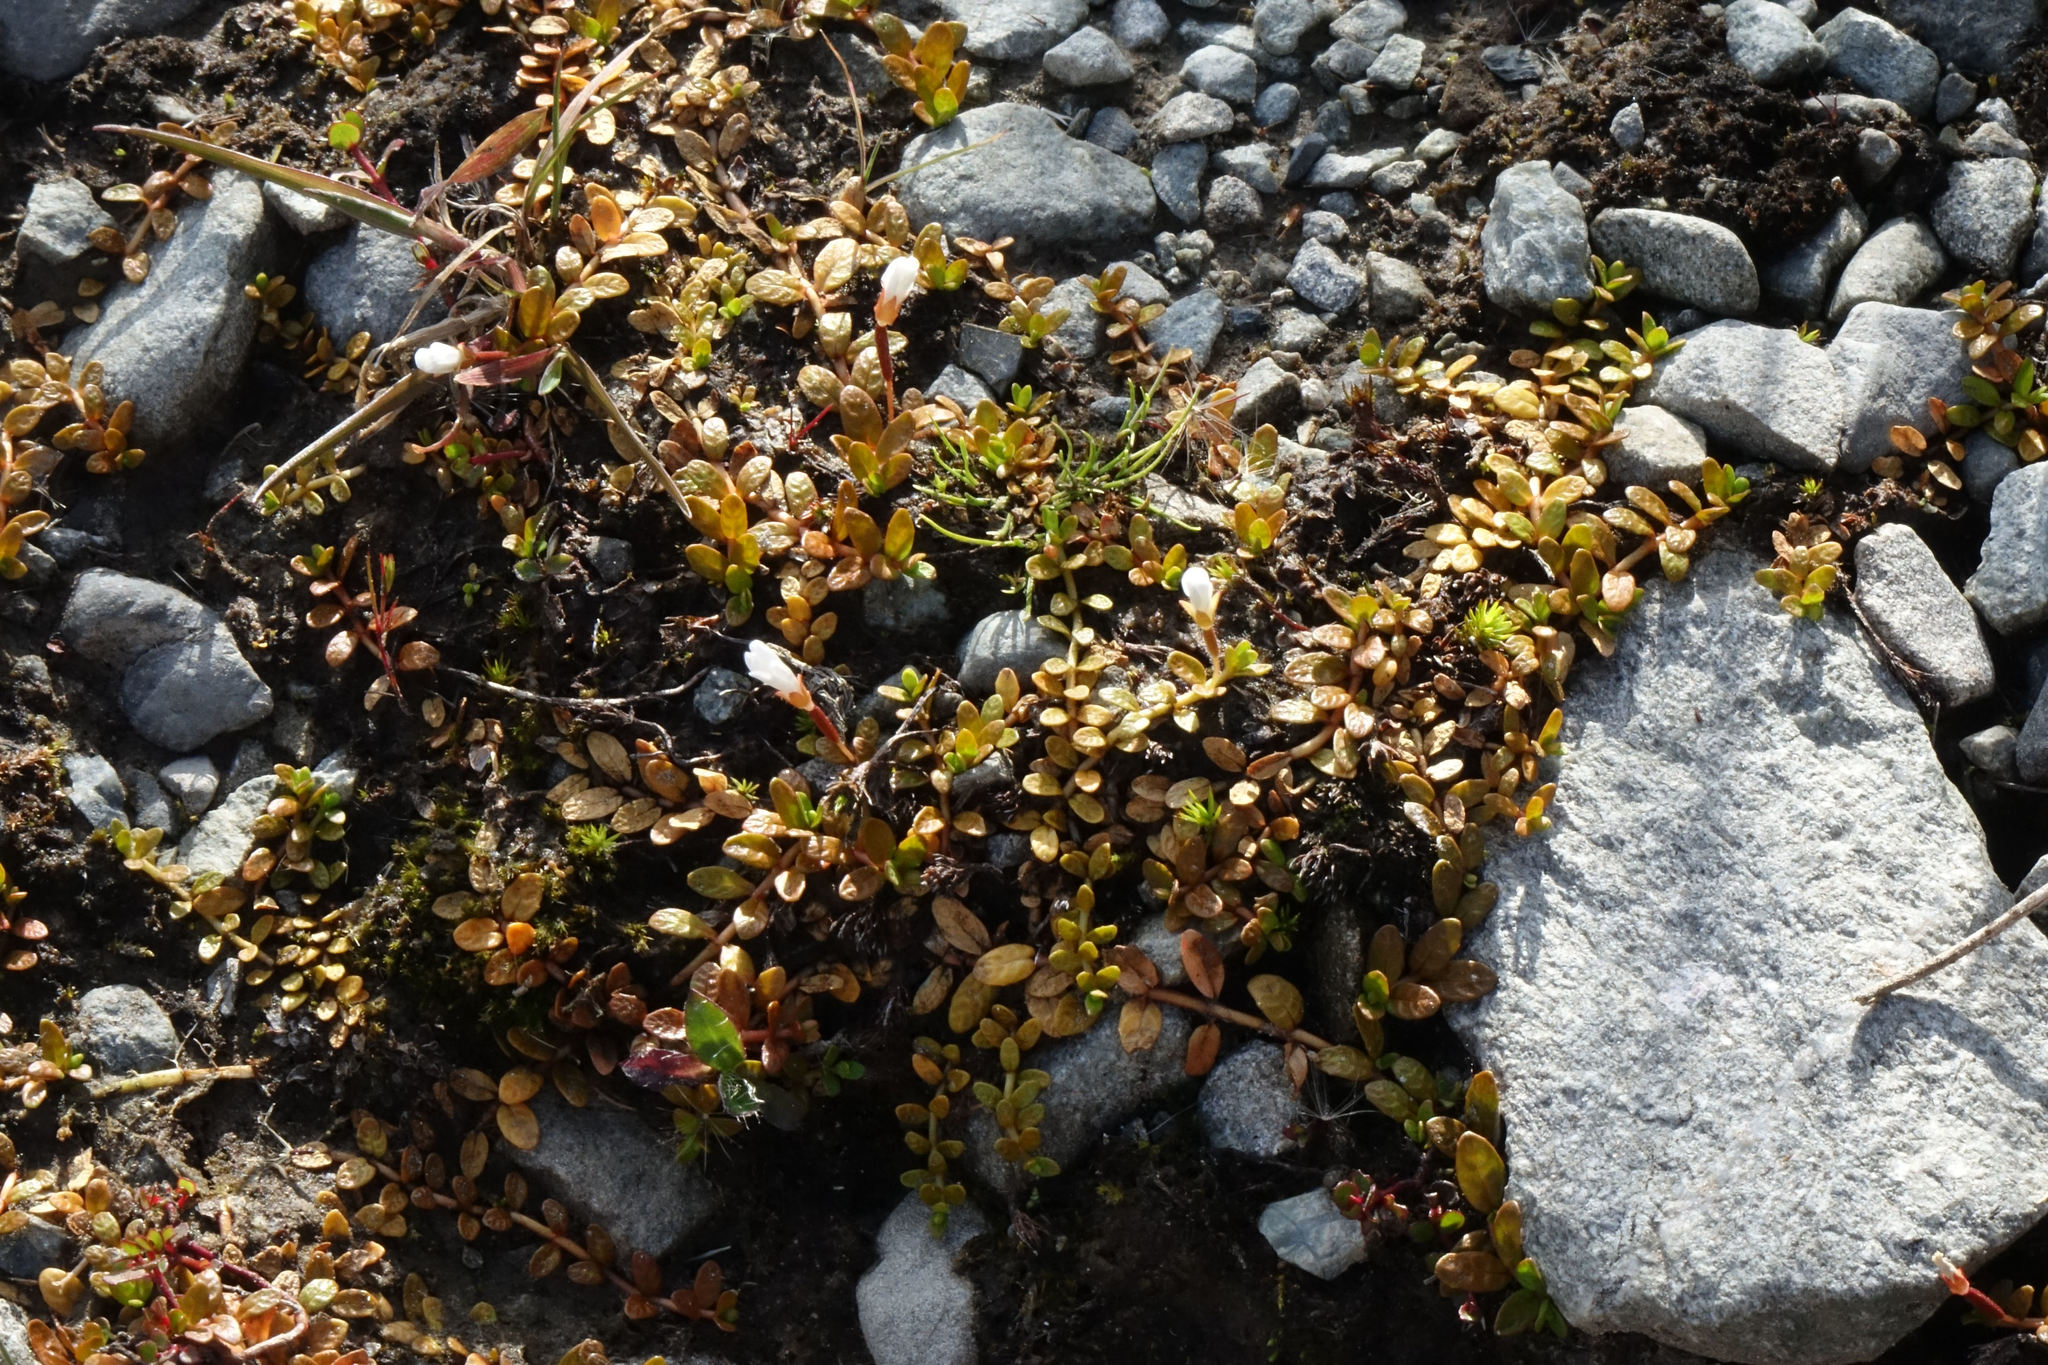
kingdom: Plantae
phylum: Tracheophyta
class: Magnoliopsida
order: Myrtales
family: Onagraceae
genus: Epilobium
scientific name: Epilobium angustum
